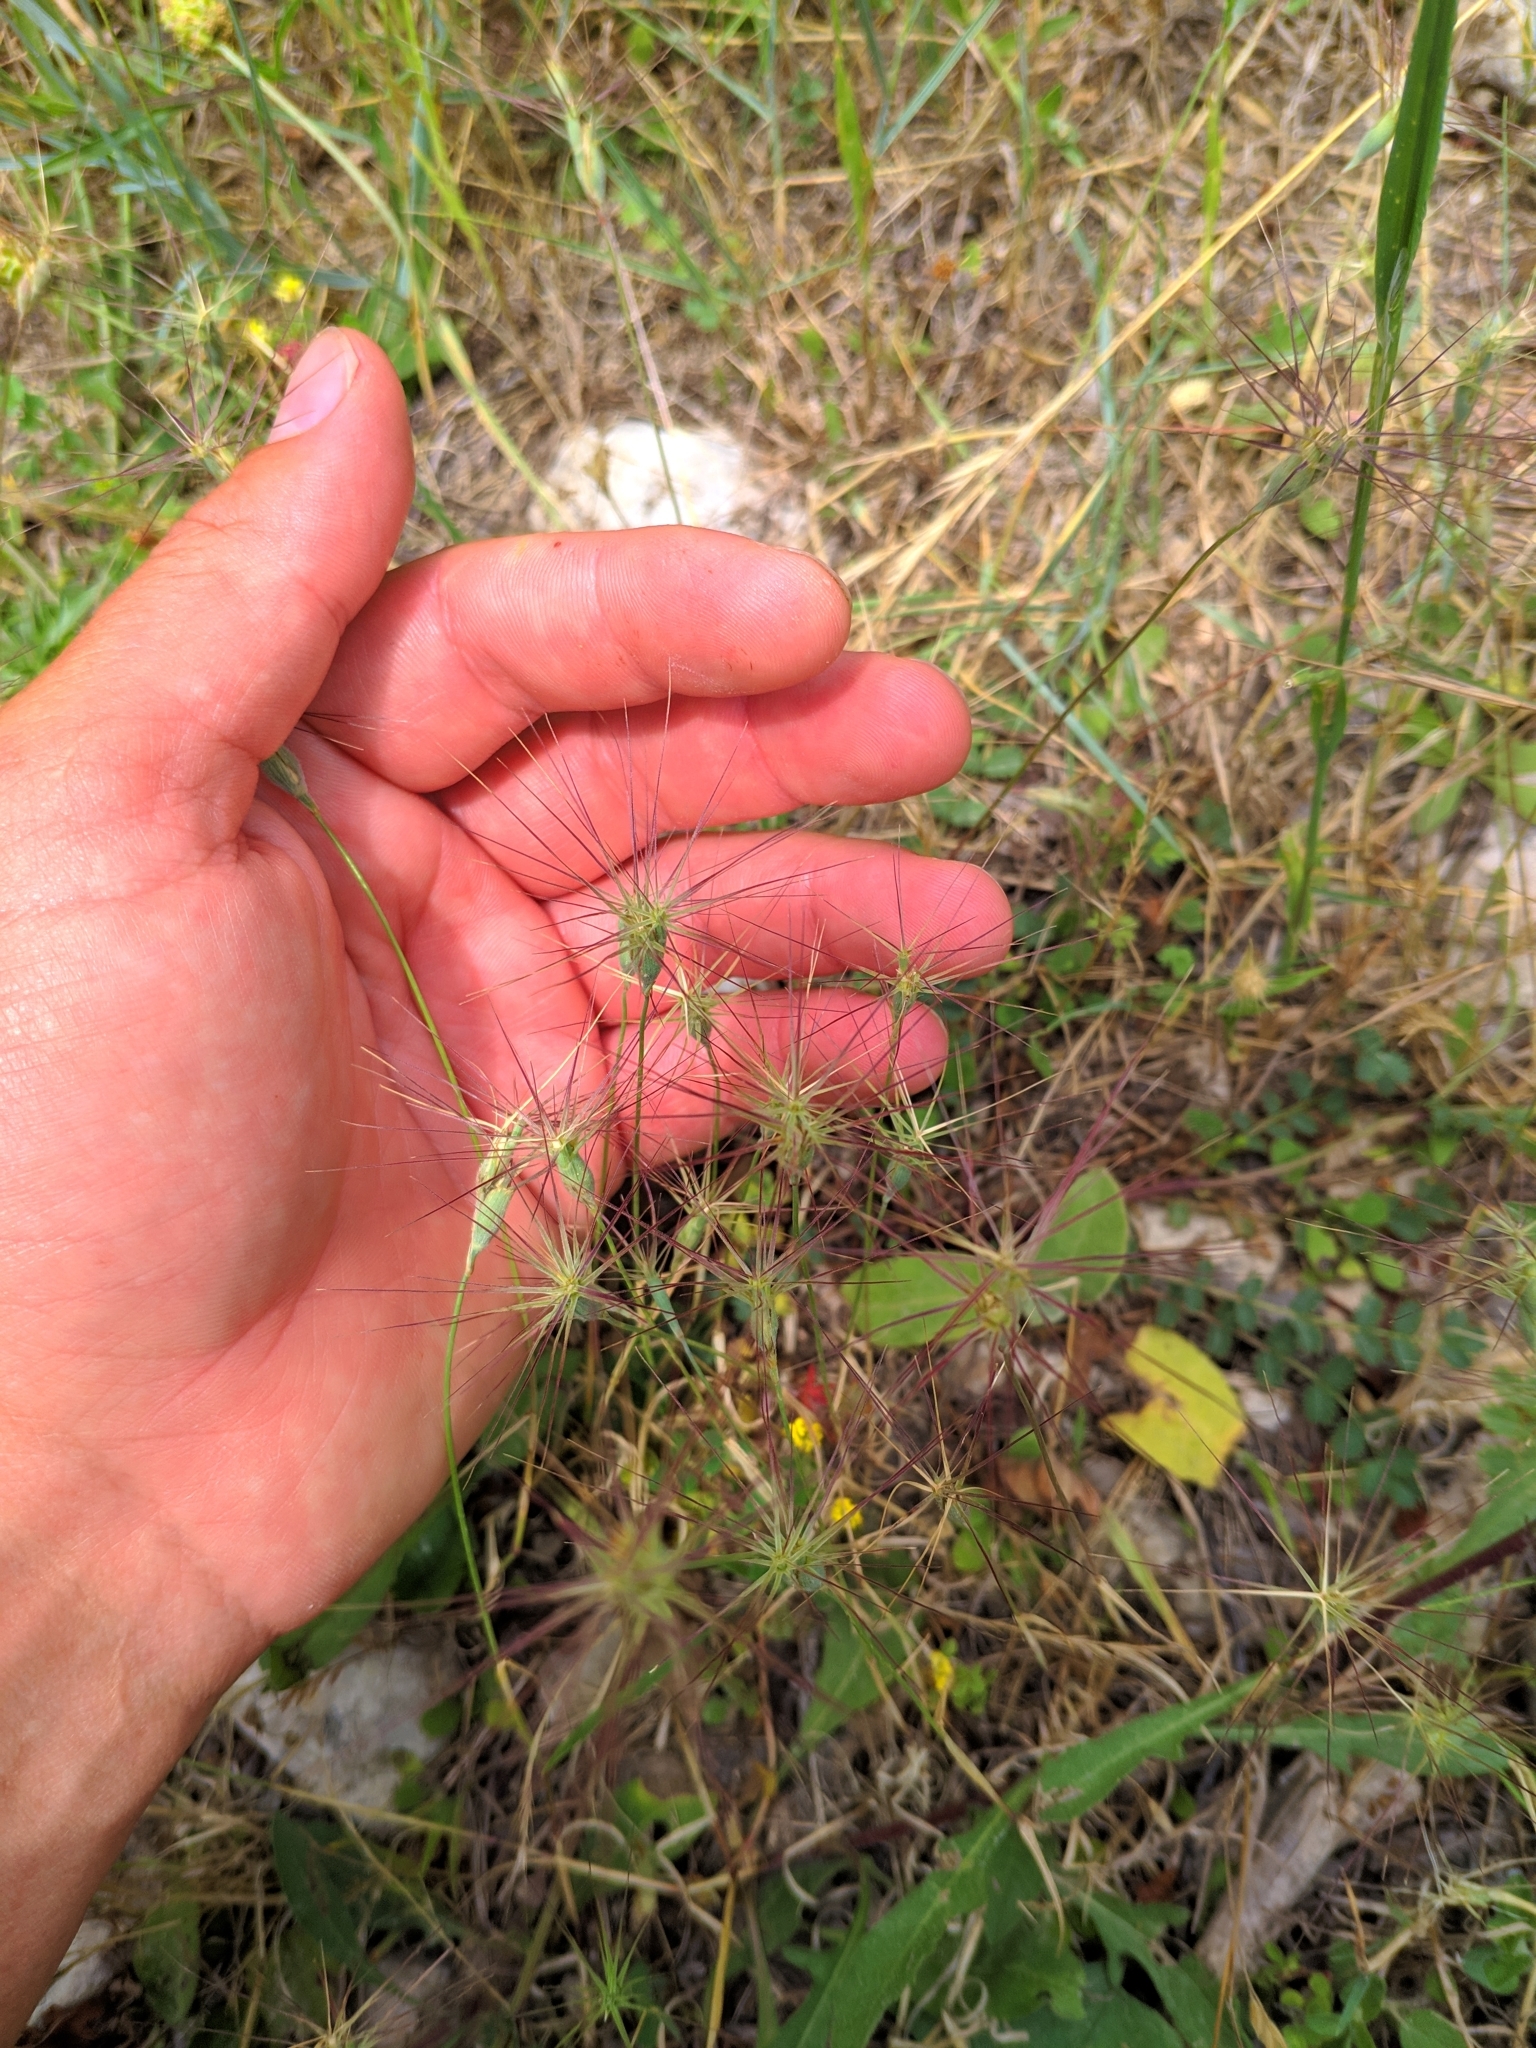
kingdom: Plantae
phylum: Tracheophyta
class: Liliopsida
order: Poales
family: Poaceae
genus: Aegilops
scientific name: Aegilops geniculata
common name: Ovate goat grass
